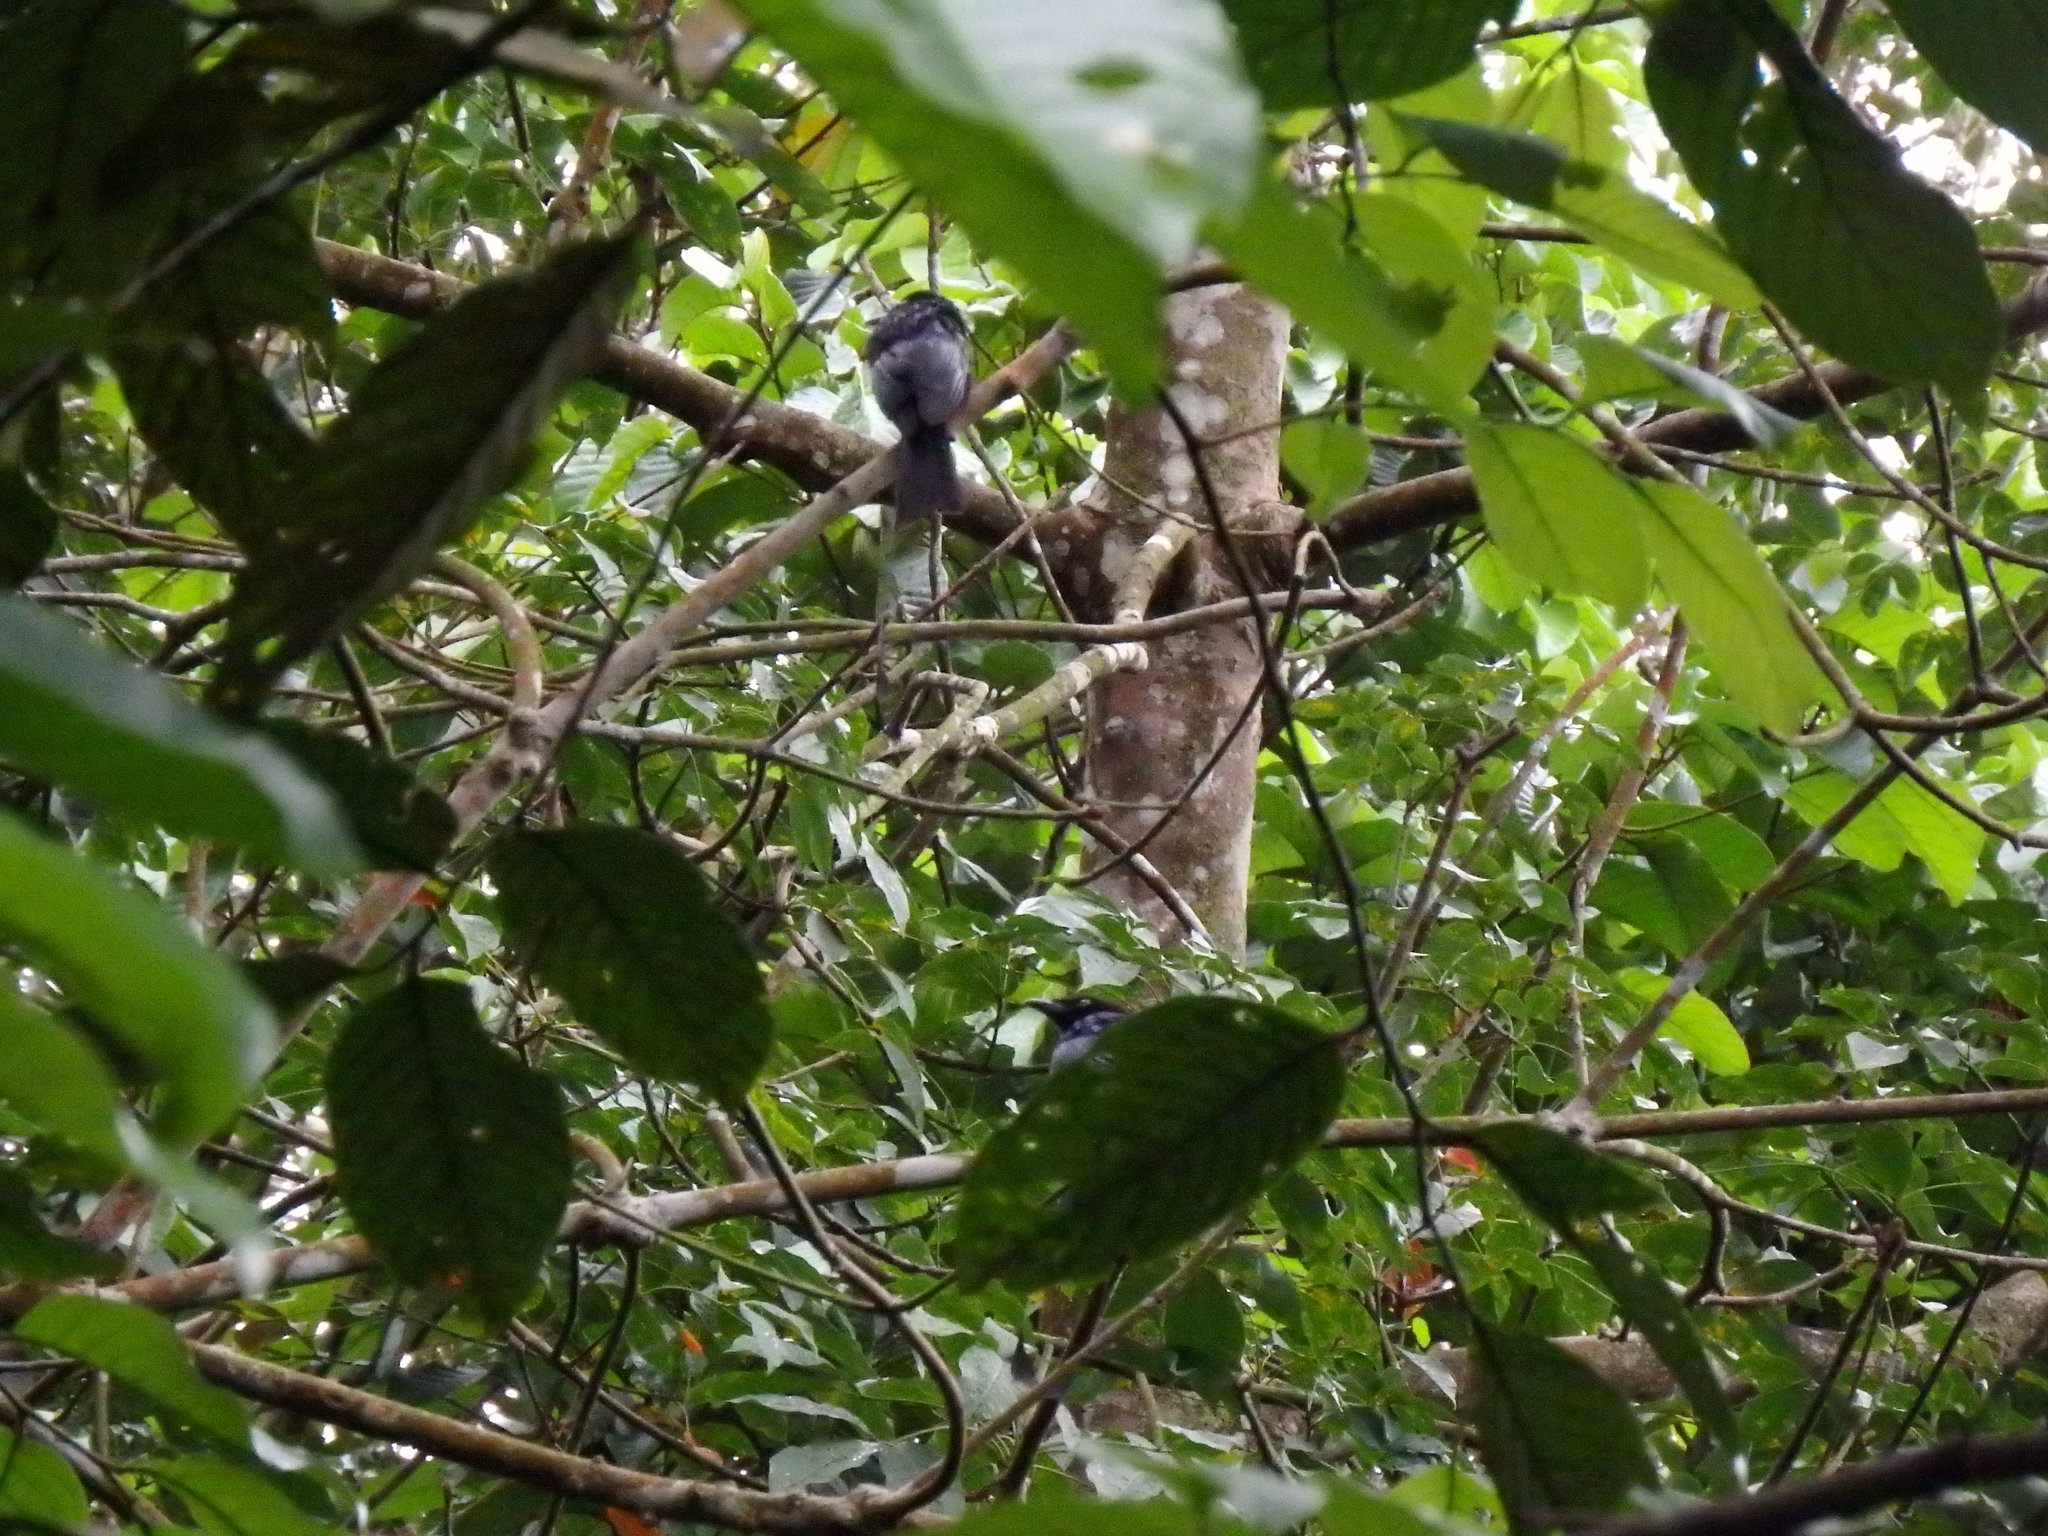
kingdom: Animalia
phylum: Chordata
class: Aves
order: Passeriformes
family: Dicruridae
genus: Dicrurus
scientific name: Dicrurus paradiseus
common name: Greater racket-tailed drongo
